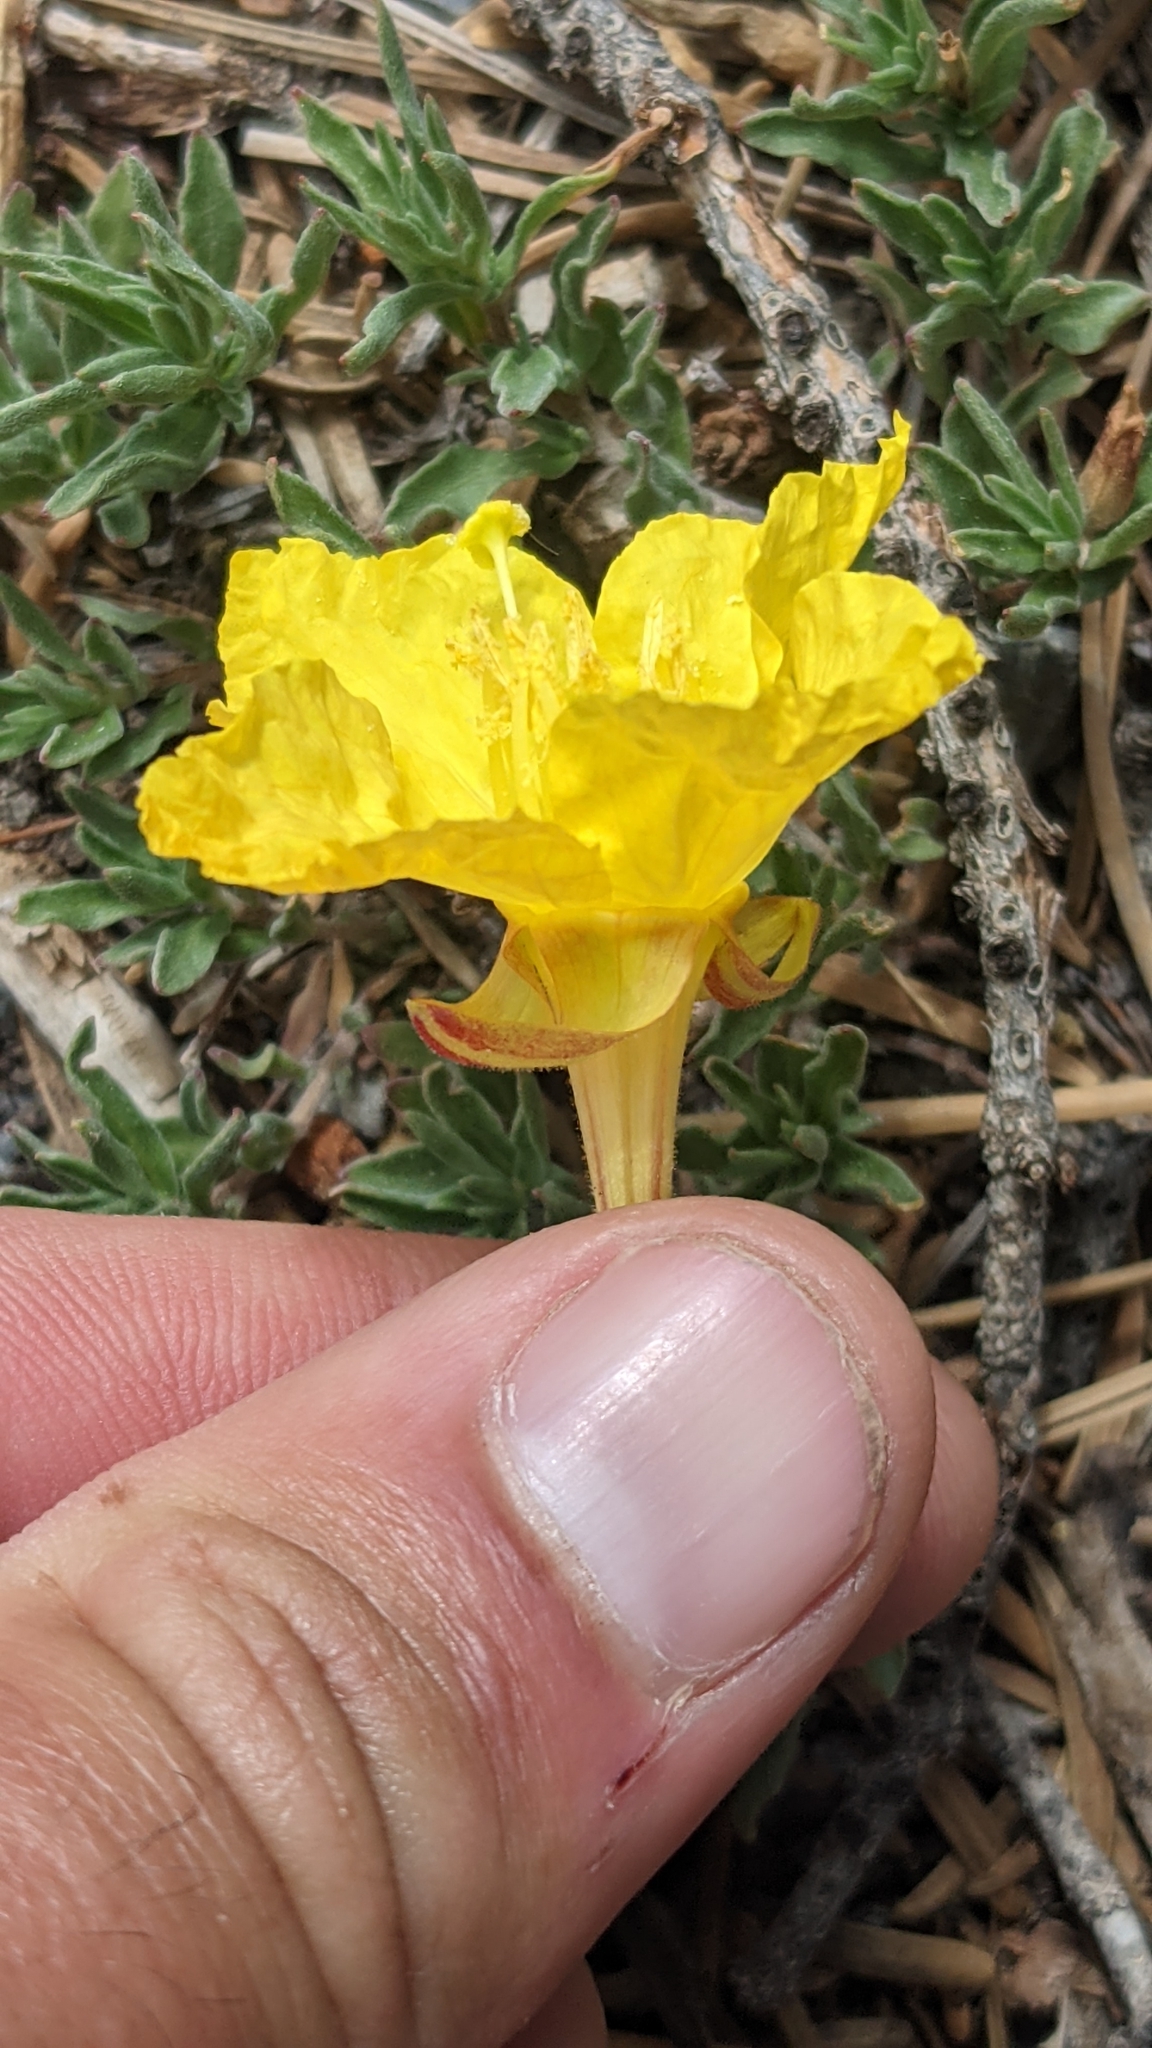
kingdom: Plantae
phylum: Tracheophyta
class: Magnoliopsida
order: Myrtales
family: Onagraceae
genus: Oenothera
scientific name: Oenothera lavandulifolia
